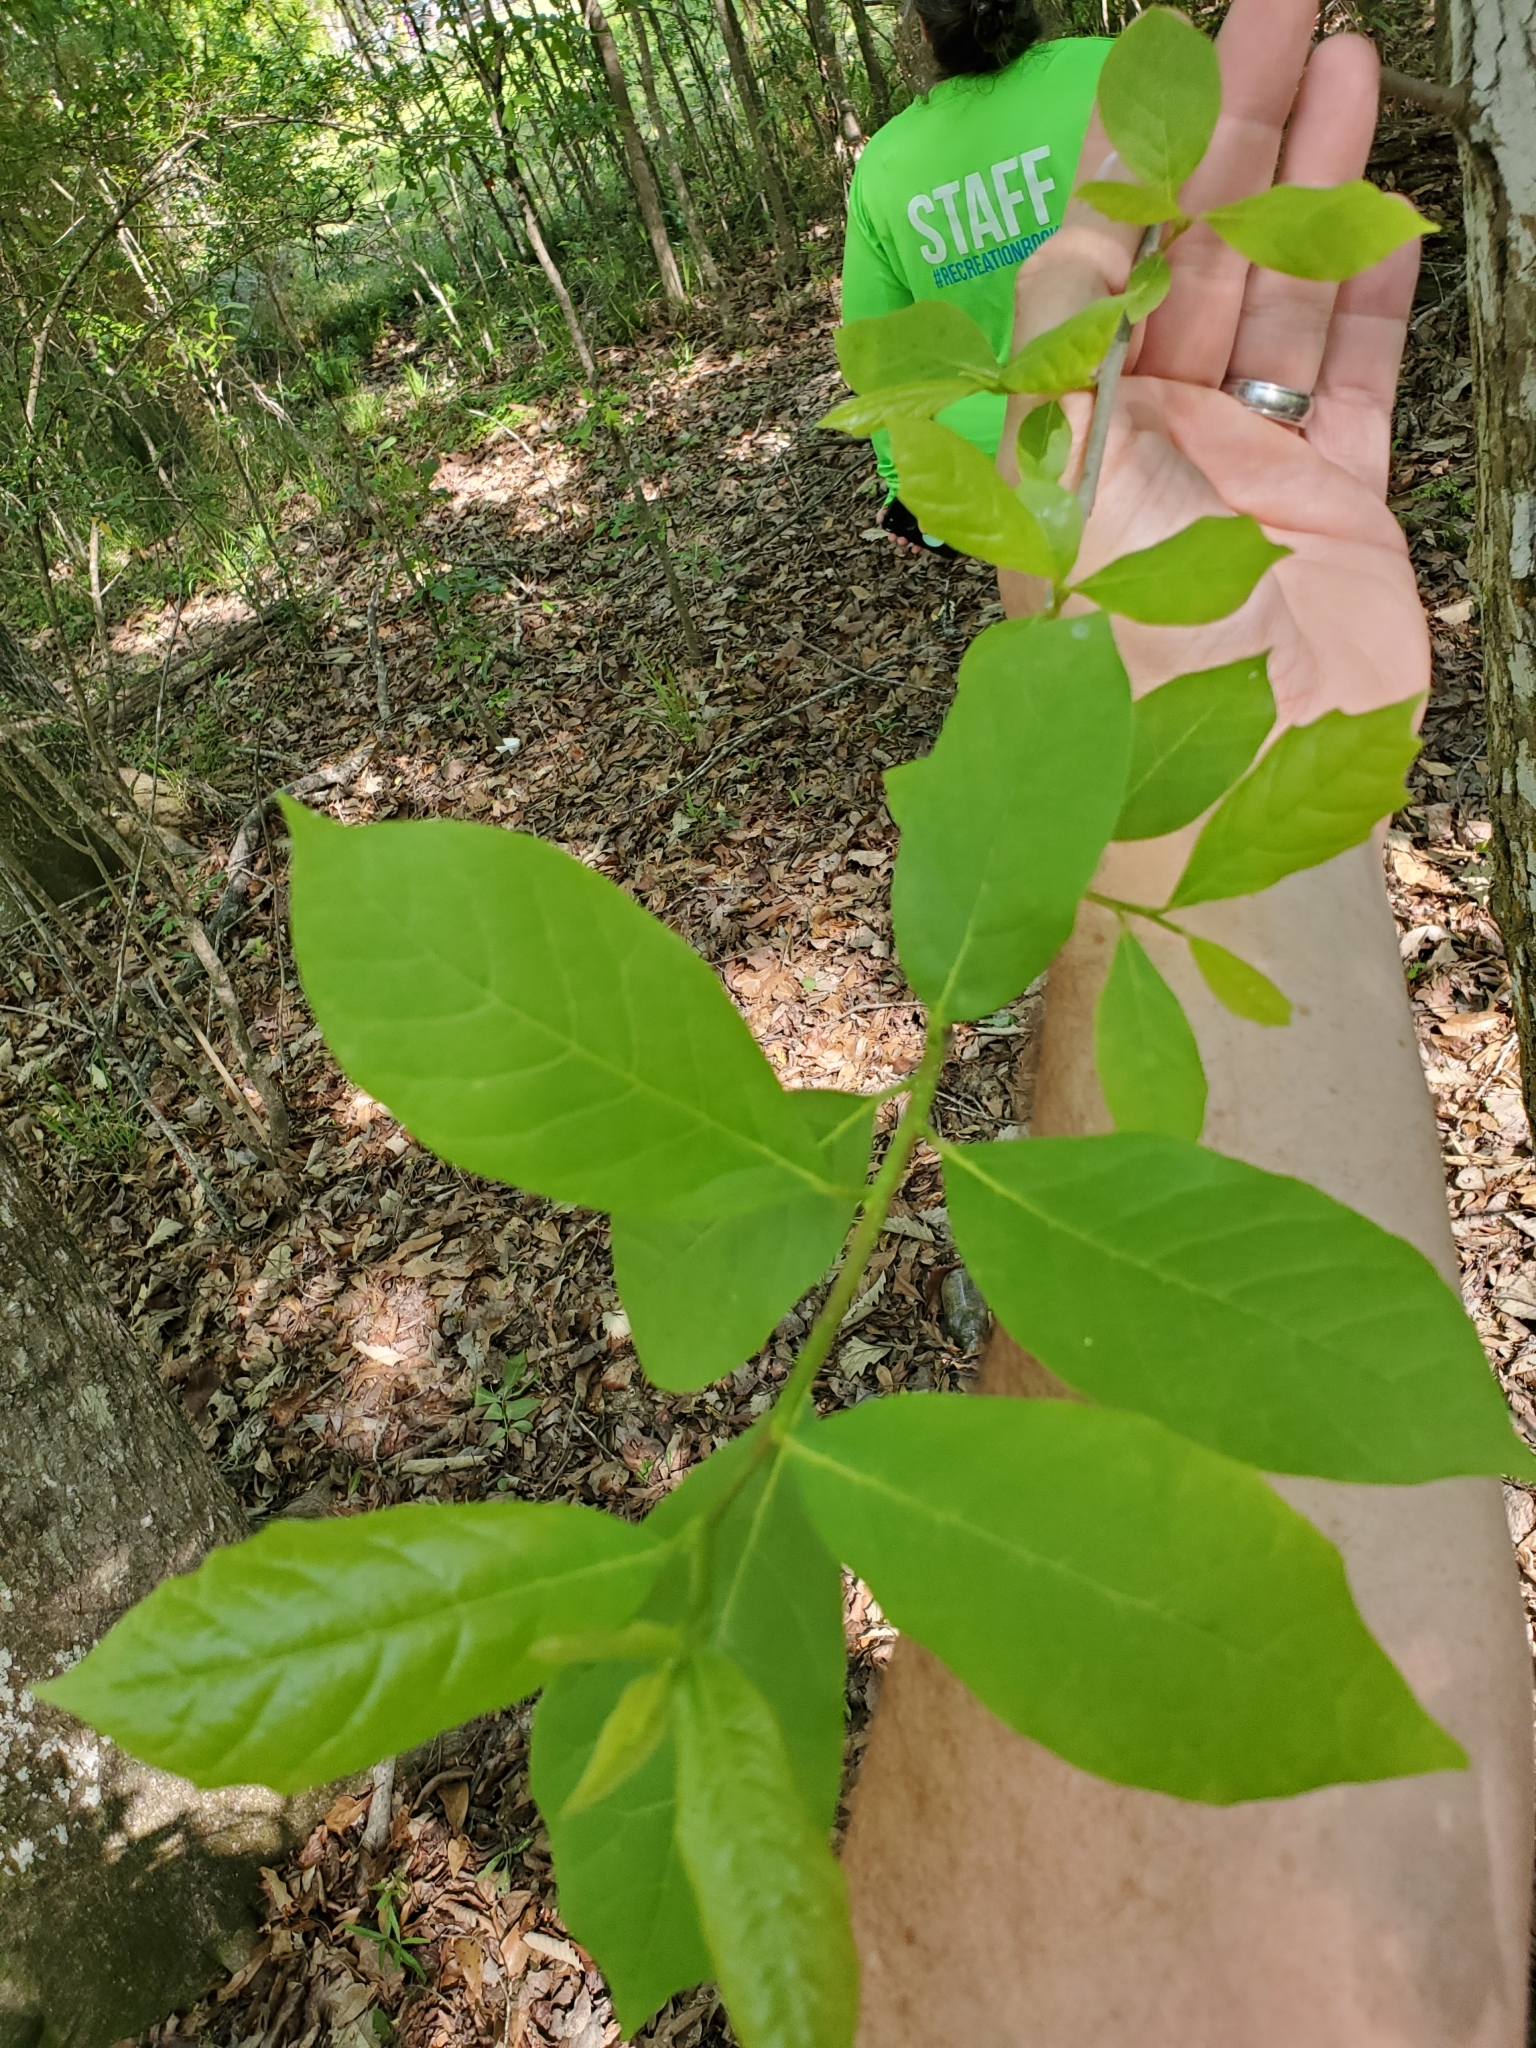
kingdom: Plantae
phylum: Tracheophyta
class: Magnoliopsida
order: Cornales
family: Nyssaceae
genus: Nyssa
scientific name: Nyssa aquatica
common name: Swamp tupelo
